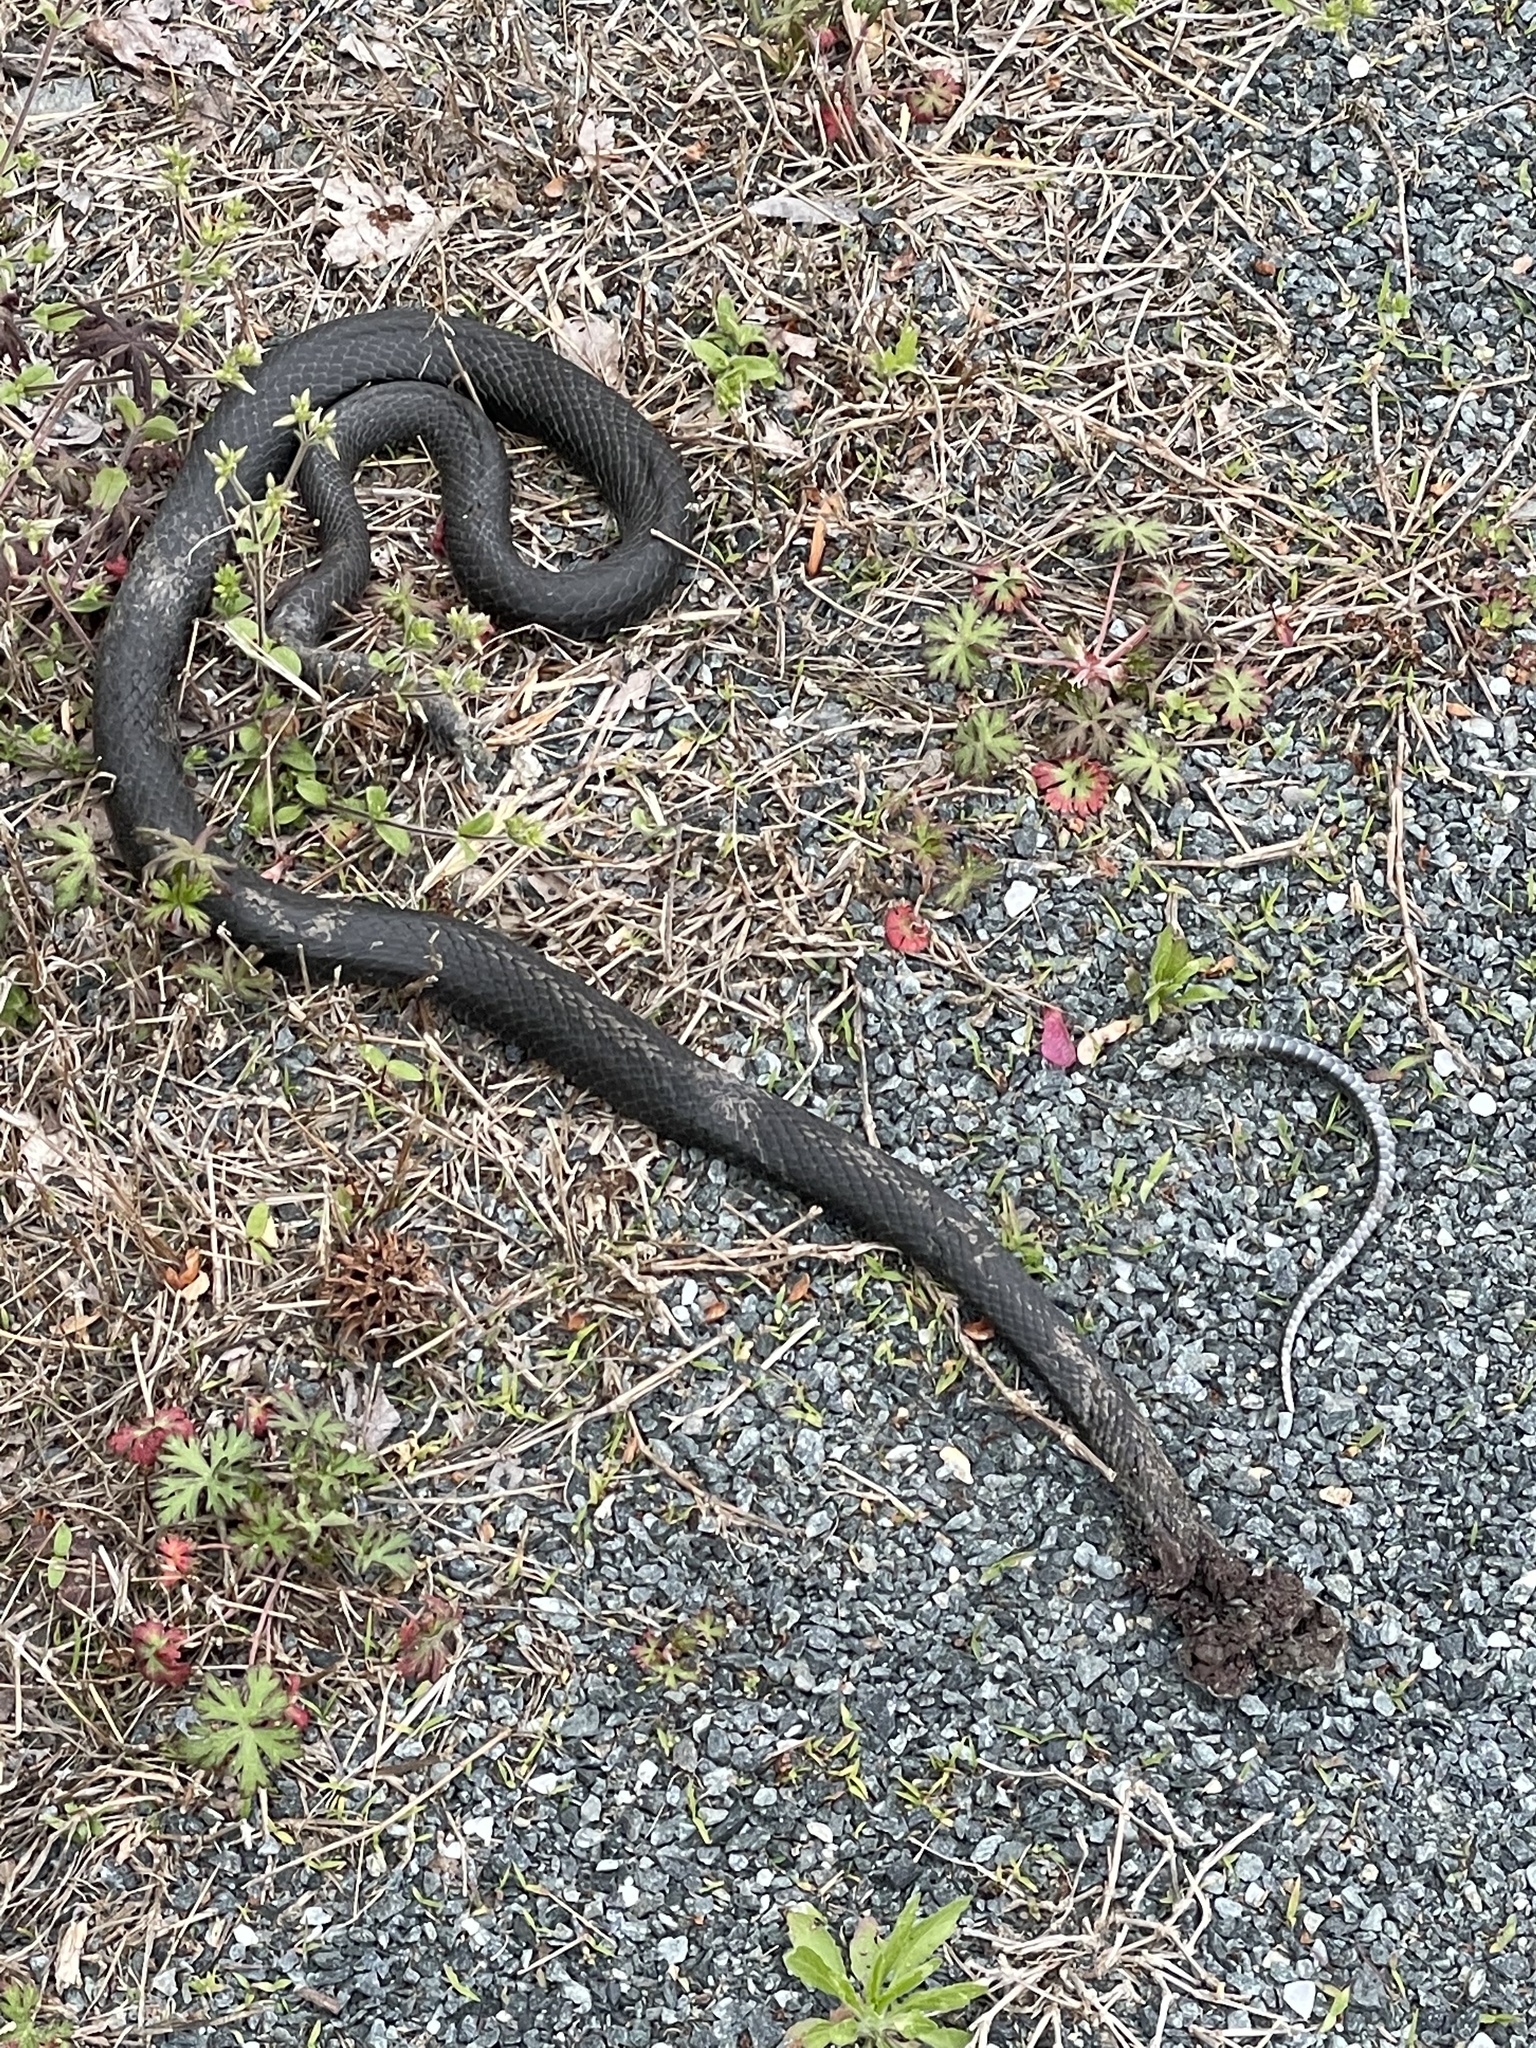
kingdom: Animalia
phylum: Chordata
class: Squamata
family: Colubridae
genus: Coluber
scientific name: Coluber constrictor
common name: Eastern racer
